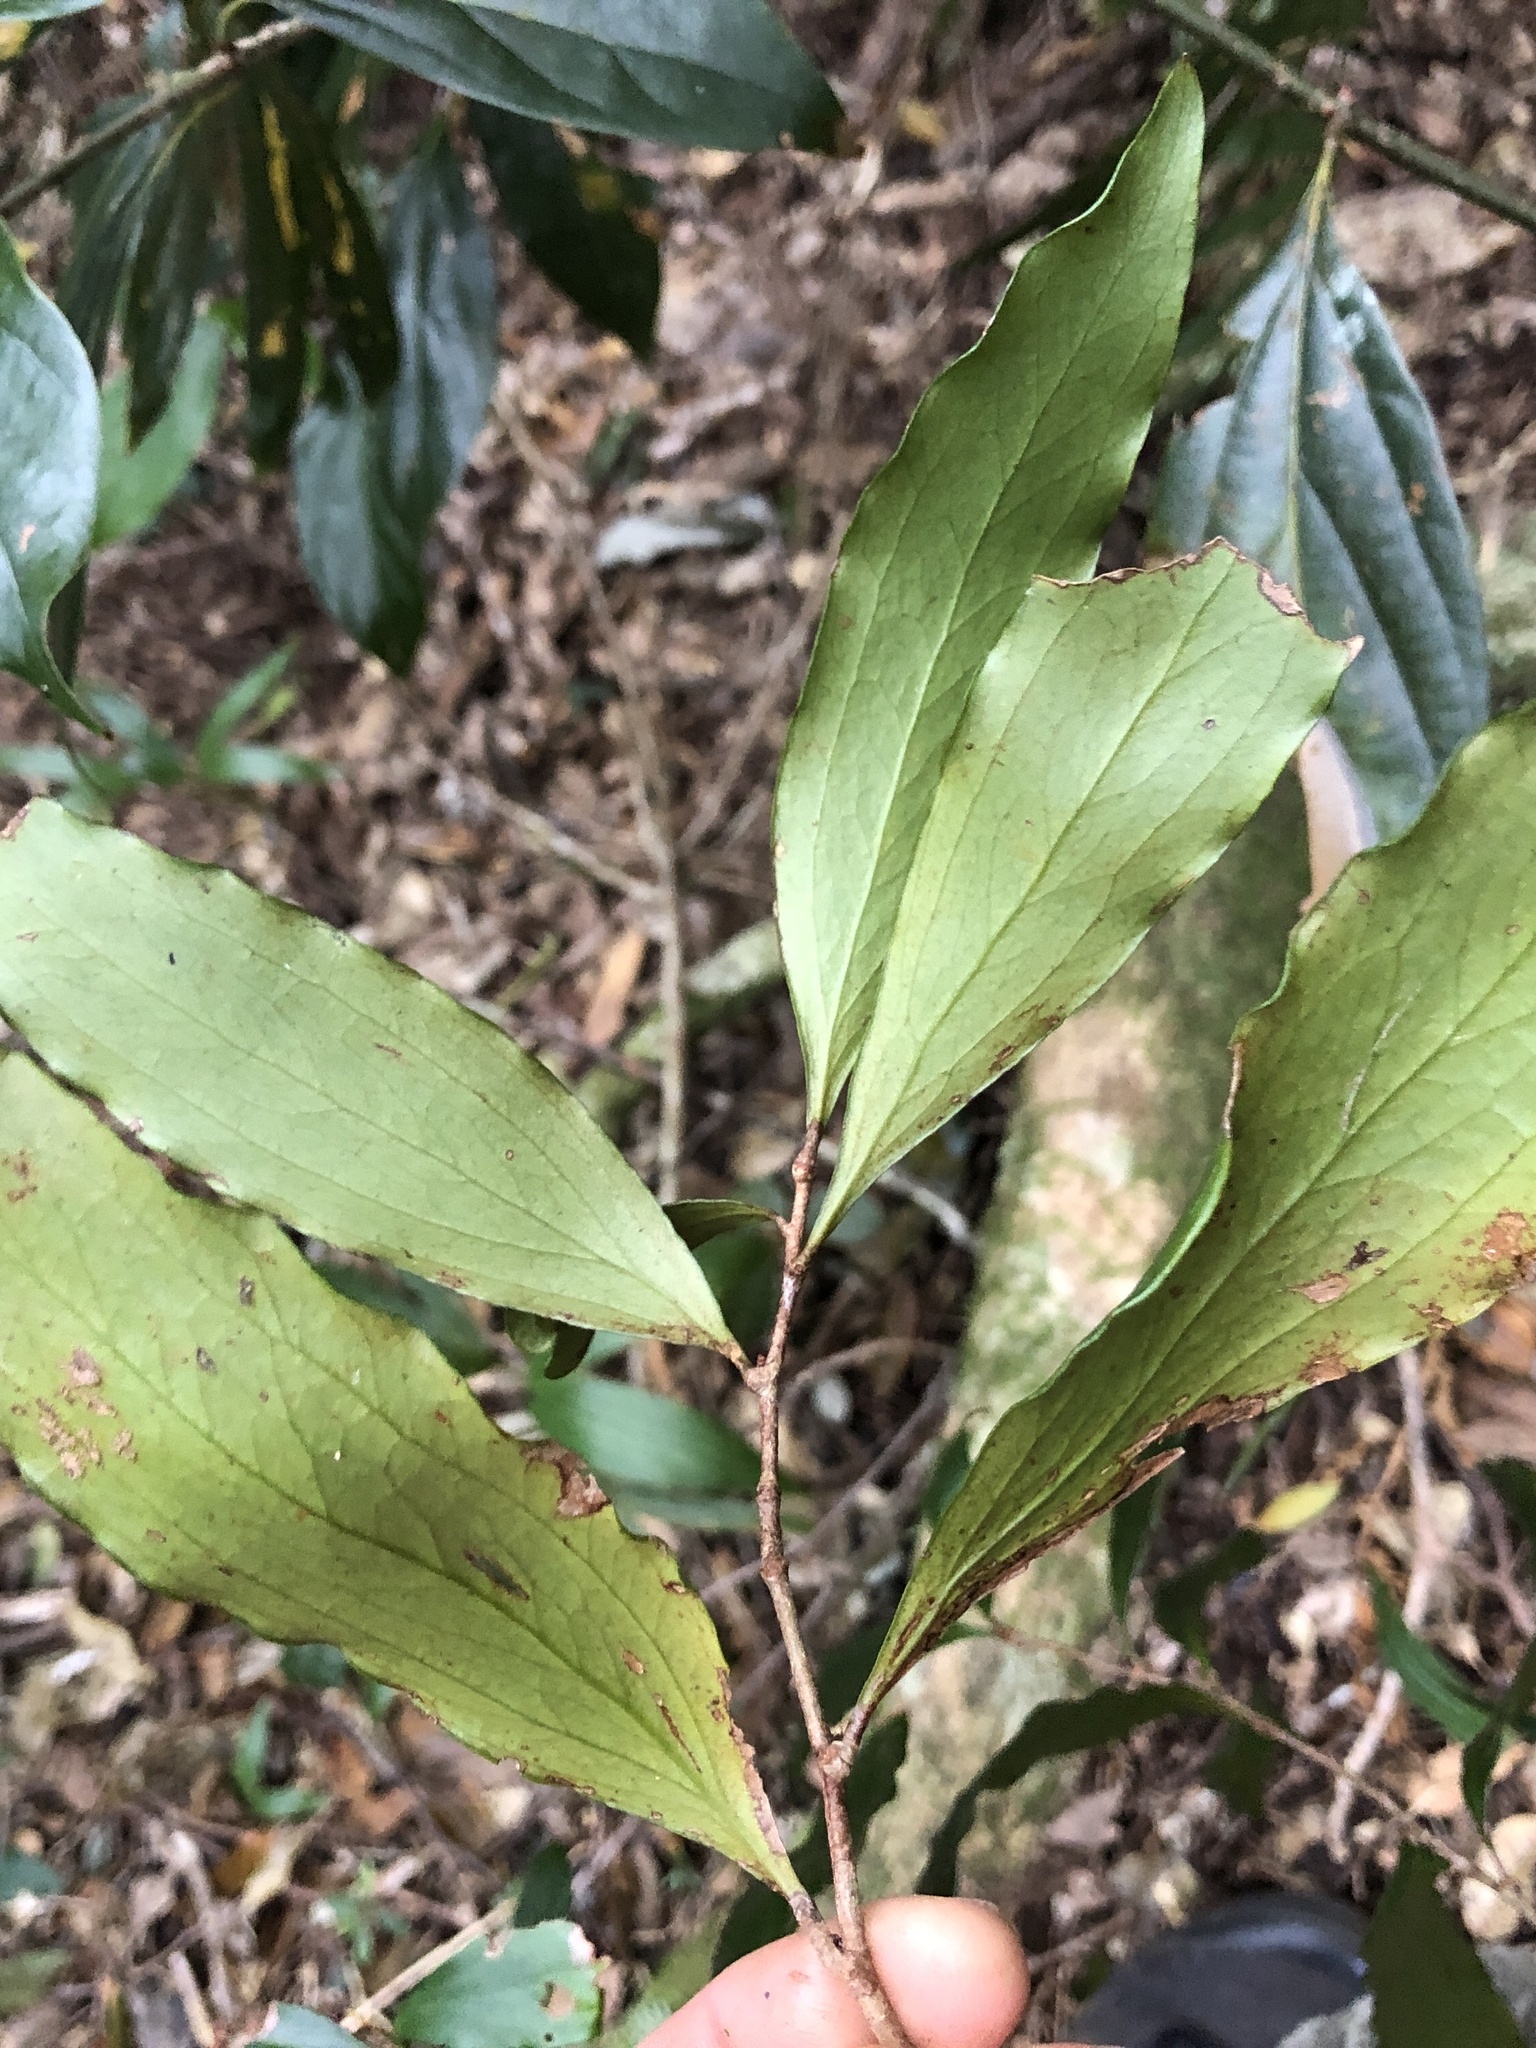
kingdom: Plantae
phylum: Tracheophyta
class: Magnoliopsida
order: Proteales
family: Proteaceae
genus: Stenocarpus
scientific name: Stenocarpus salignus
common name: Red silky-oak
